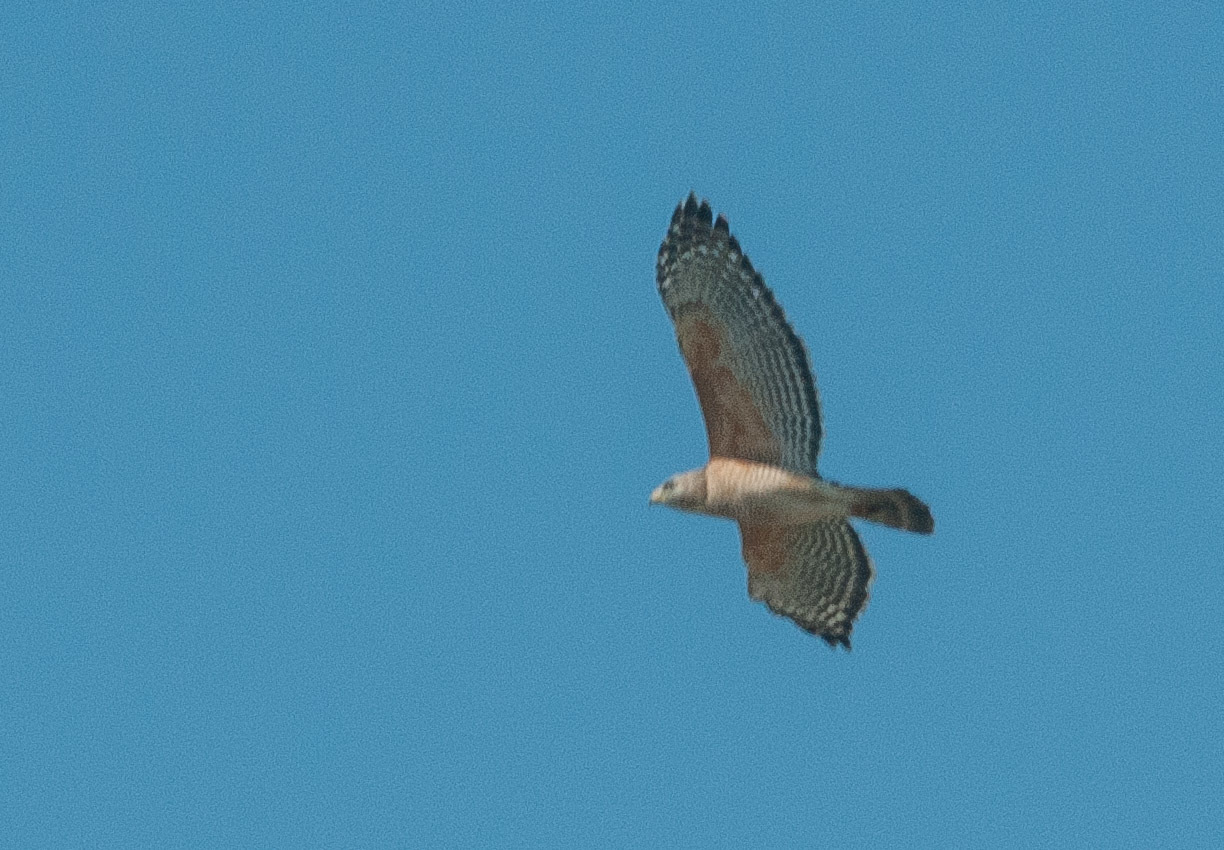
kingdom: Animalia
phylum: Chordata
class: Aves
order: Accipitriformes
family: Accipitridae
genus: Buteo
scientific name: Buteo lineatus
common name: Red-shouldered hawk
